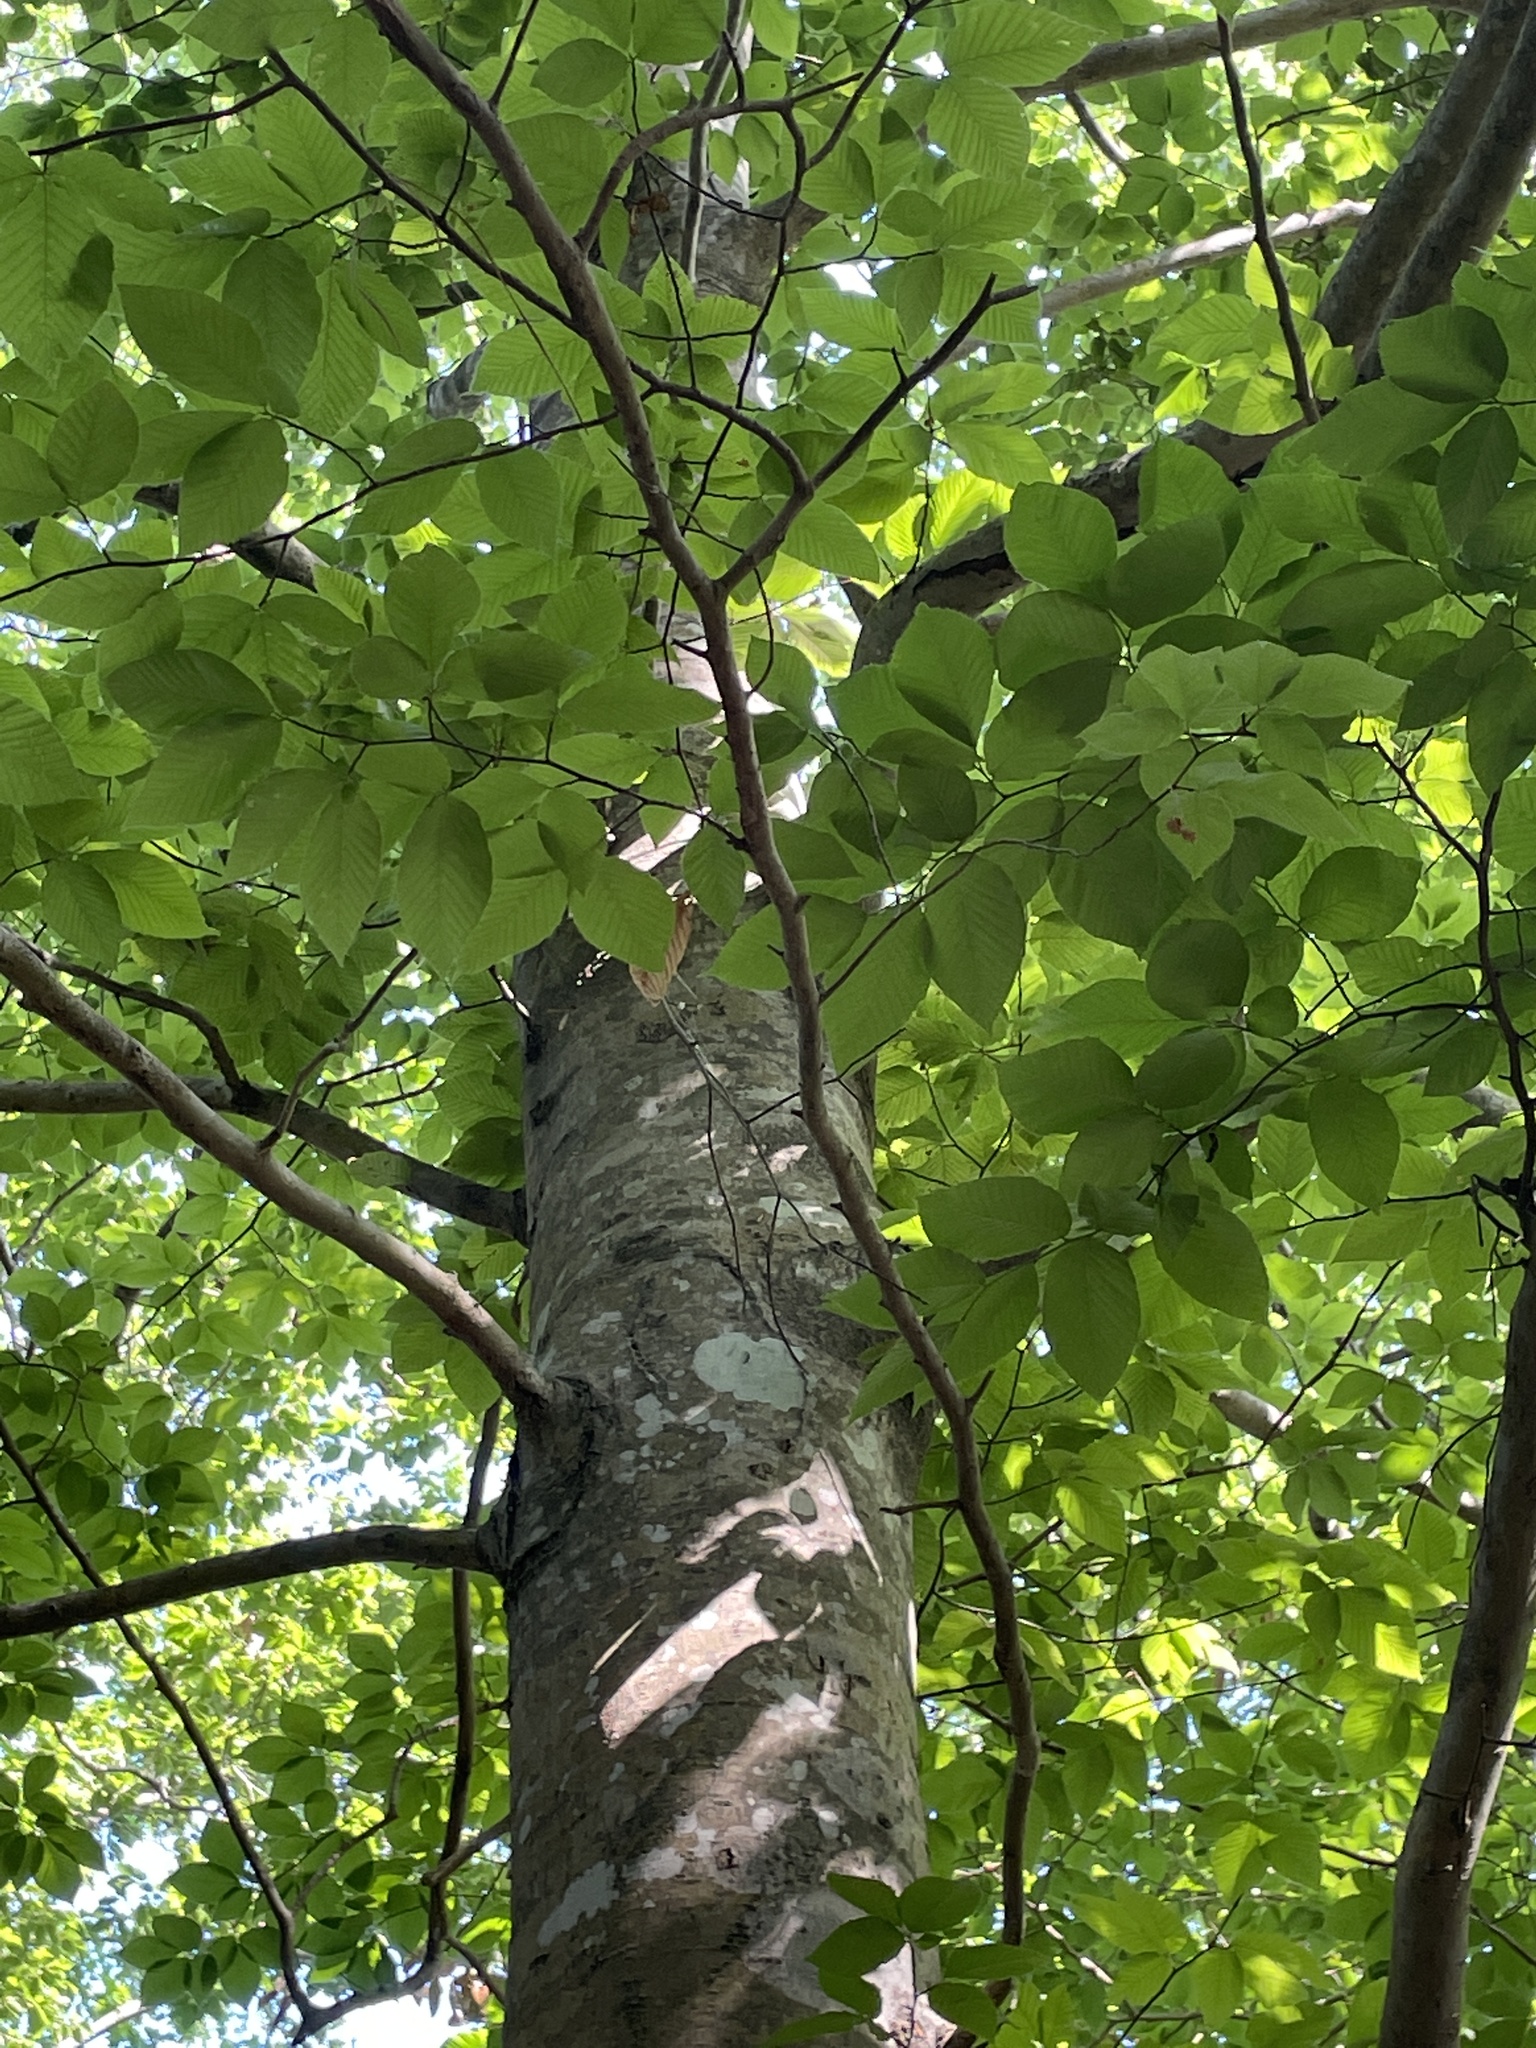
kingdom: Plantae
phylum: Tracheophyta
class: Magnoliopsida
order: Fagales
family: Fagaceae
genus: Fagus
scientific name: Fagus grandifolia
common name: American beech
